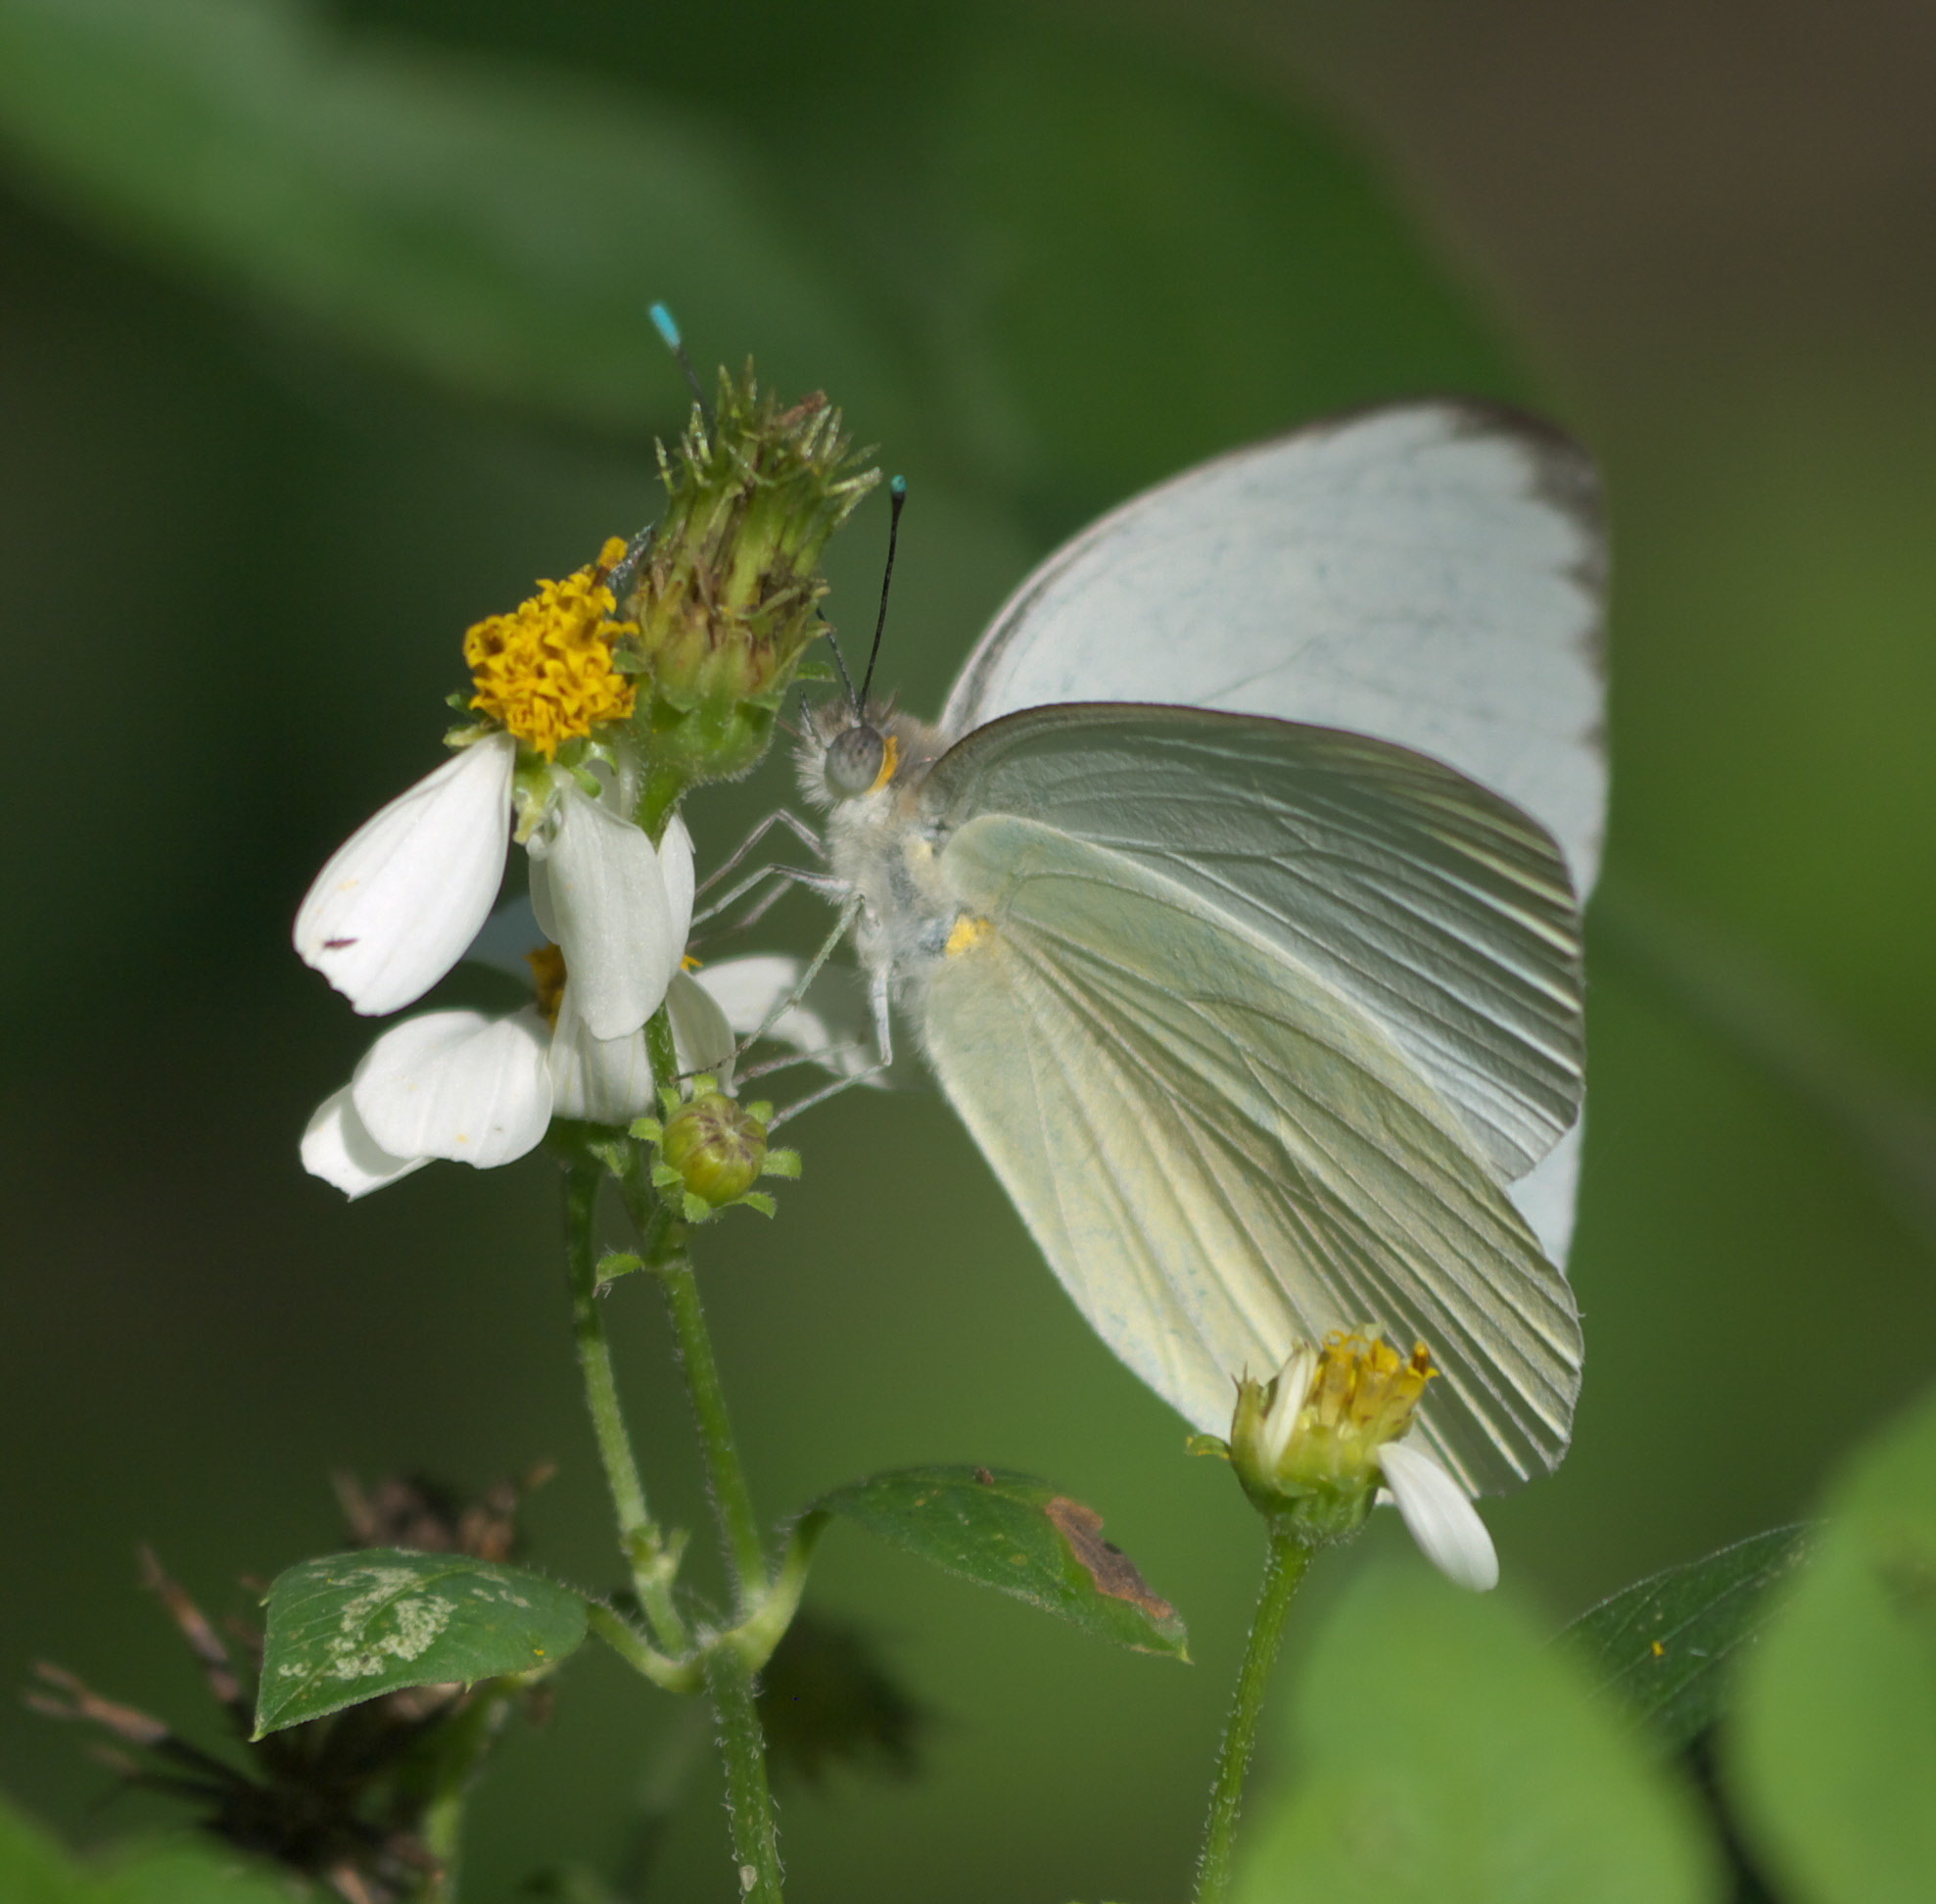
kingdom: Animalia
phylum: Arthropoda
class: Insecta
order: Lepidoptera
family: Pieridae
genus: Ascia
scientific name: Ascia monuste
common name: Great southern white
